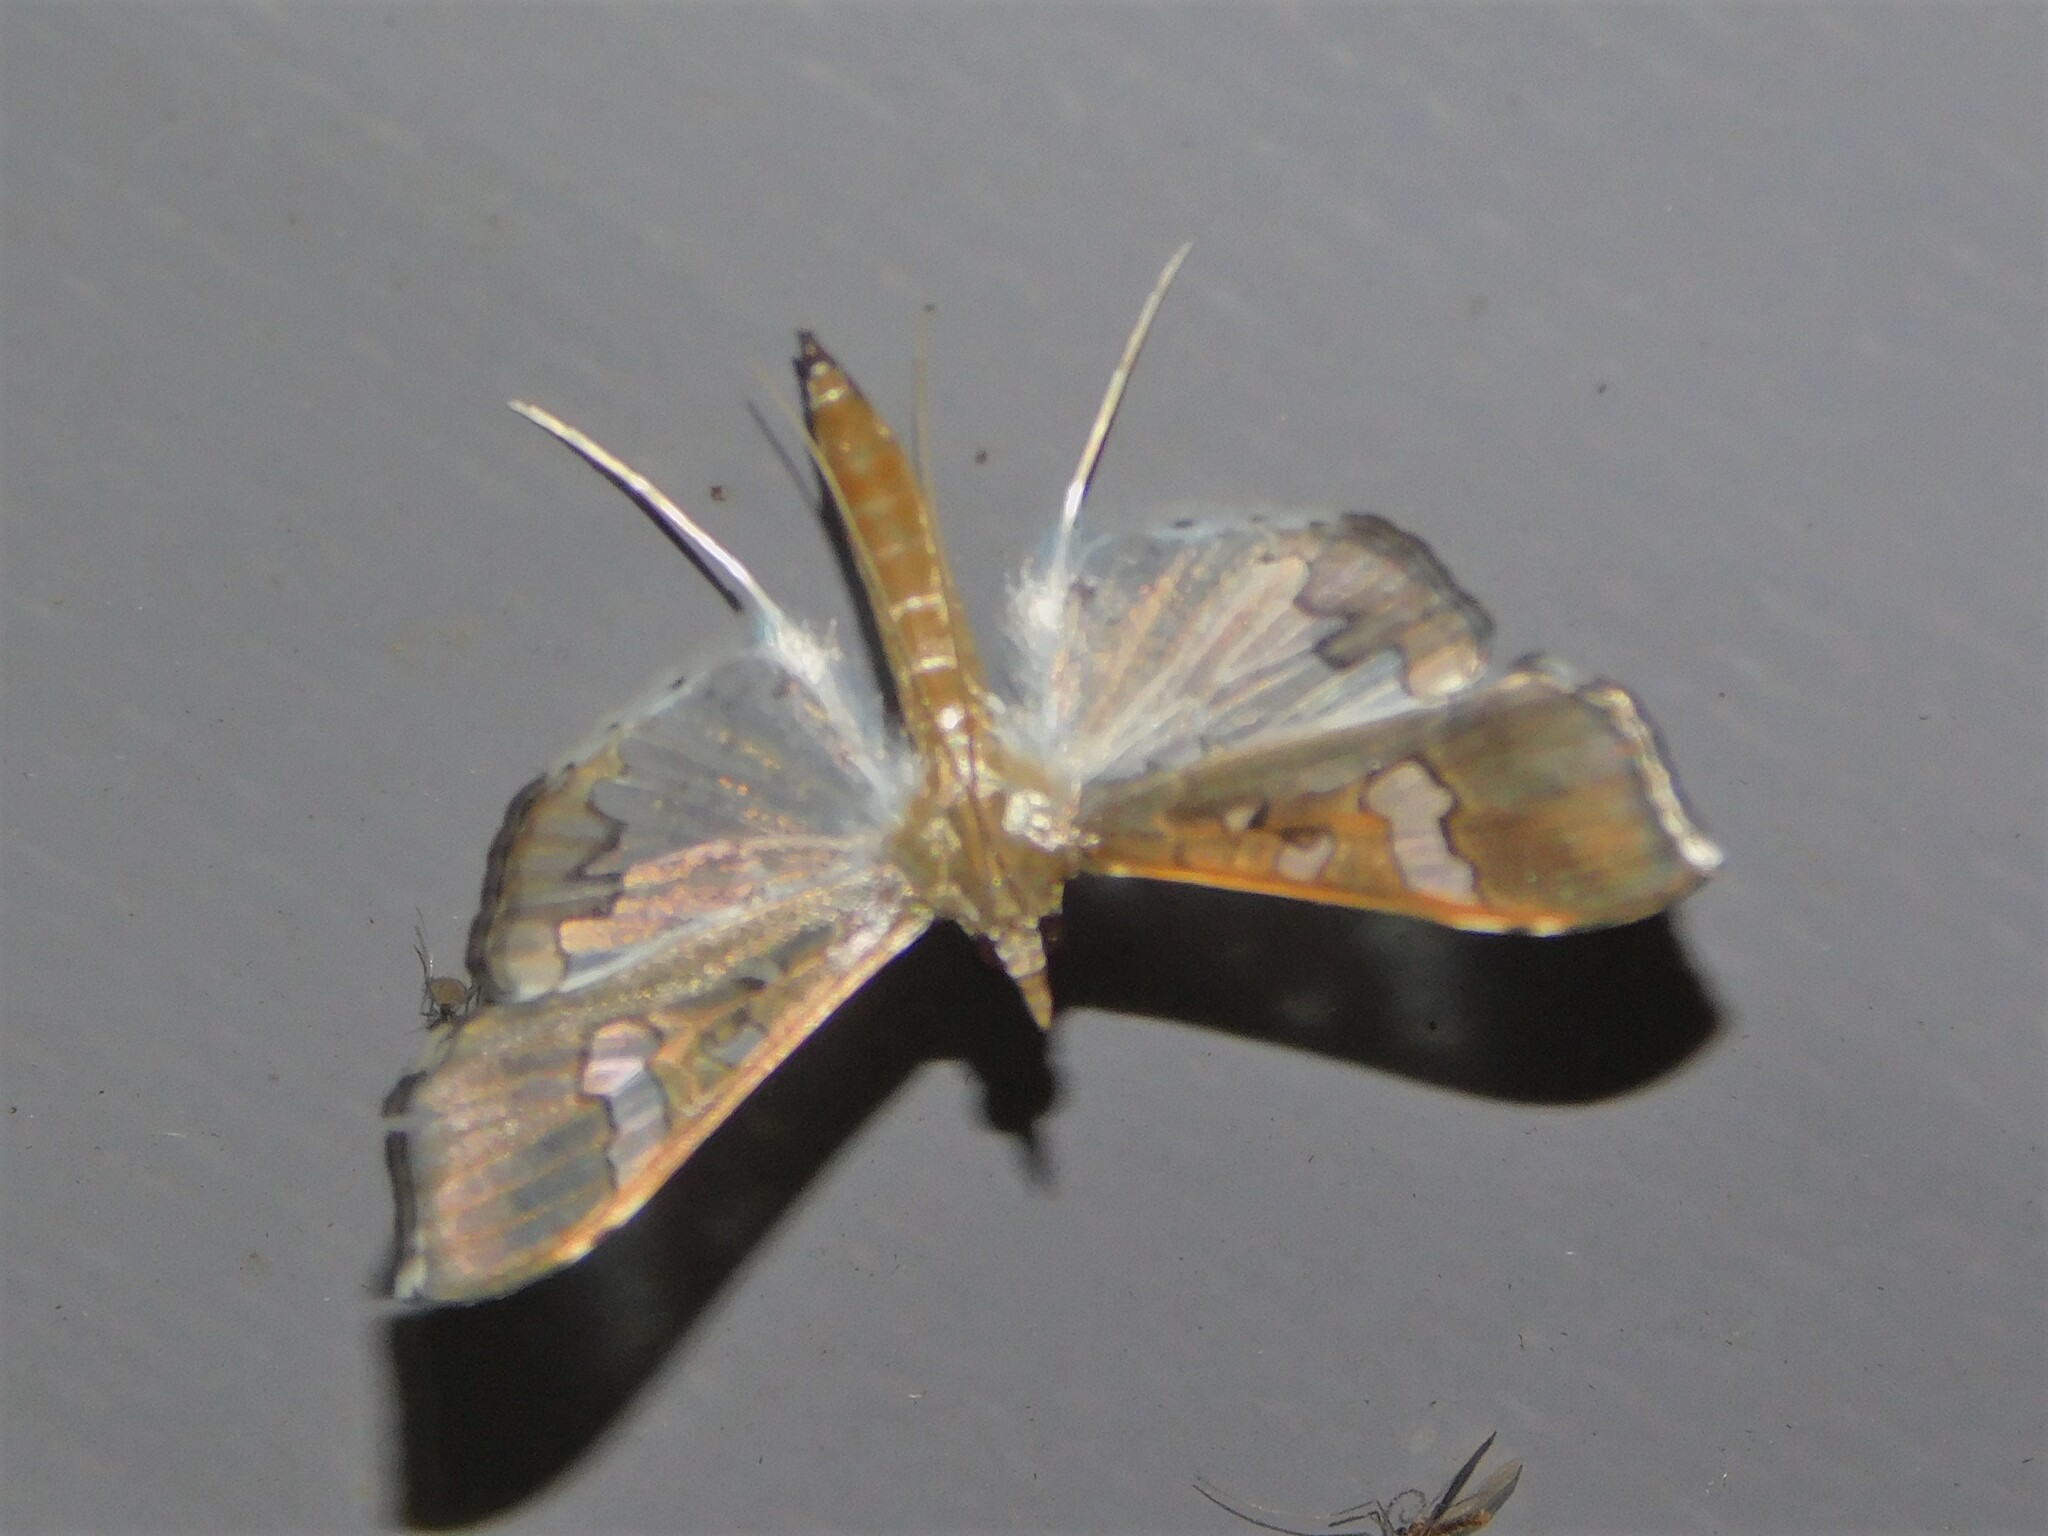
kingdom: Animalia
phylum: Arthropoda
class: Insecta
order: Lepidoptera
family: Crambidae
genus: Maruca
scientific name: Maruca vitrata
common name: Maruca pod borer
